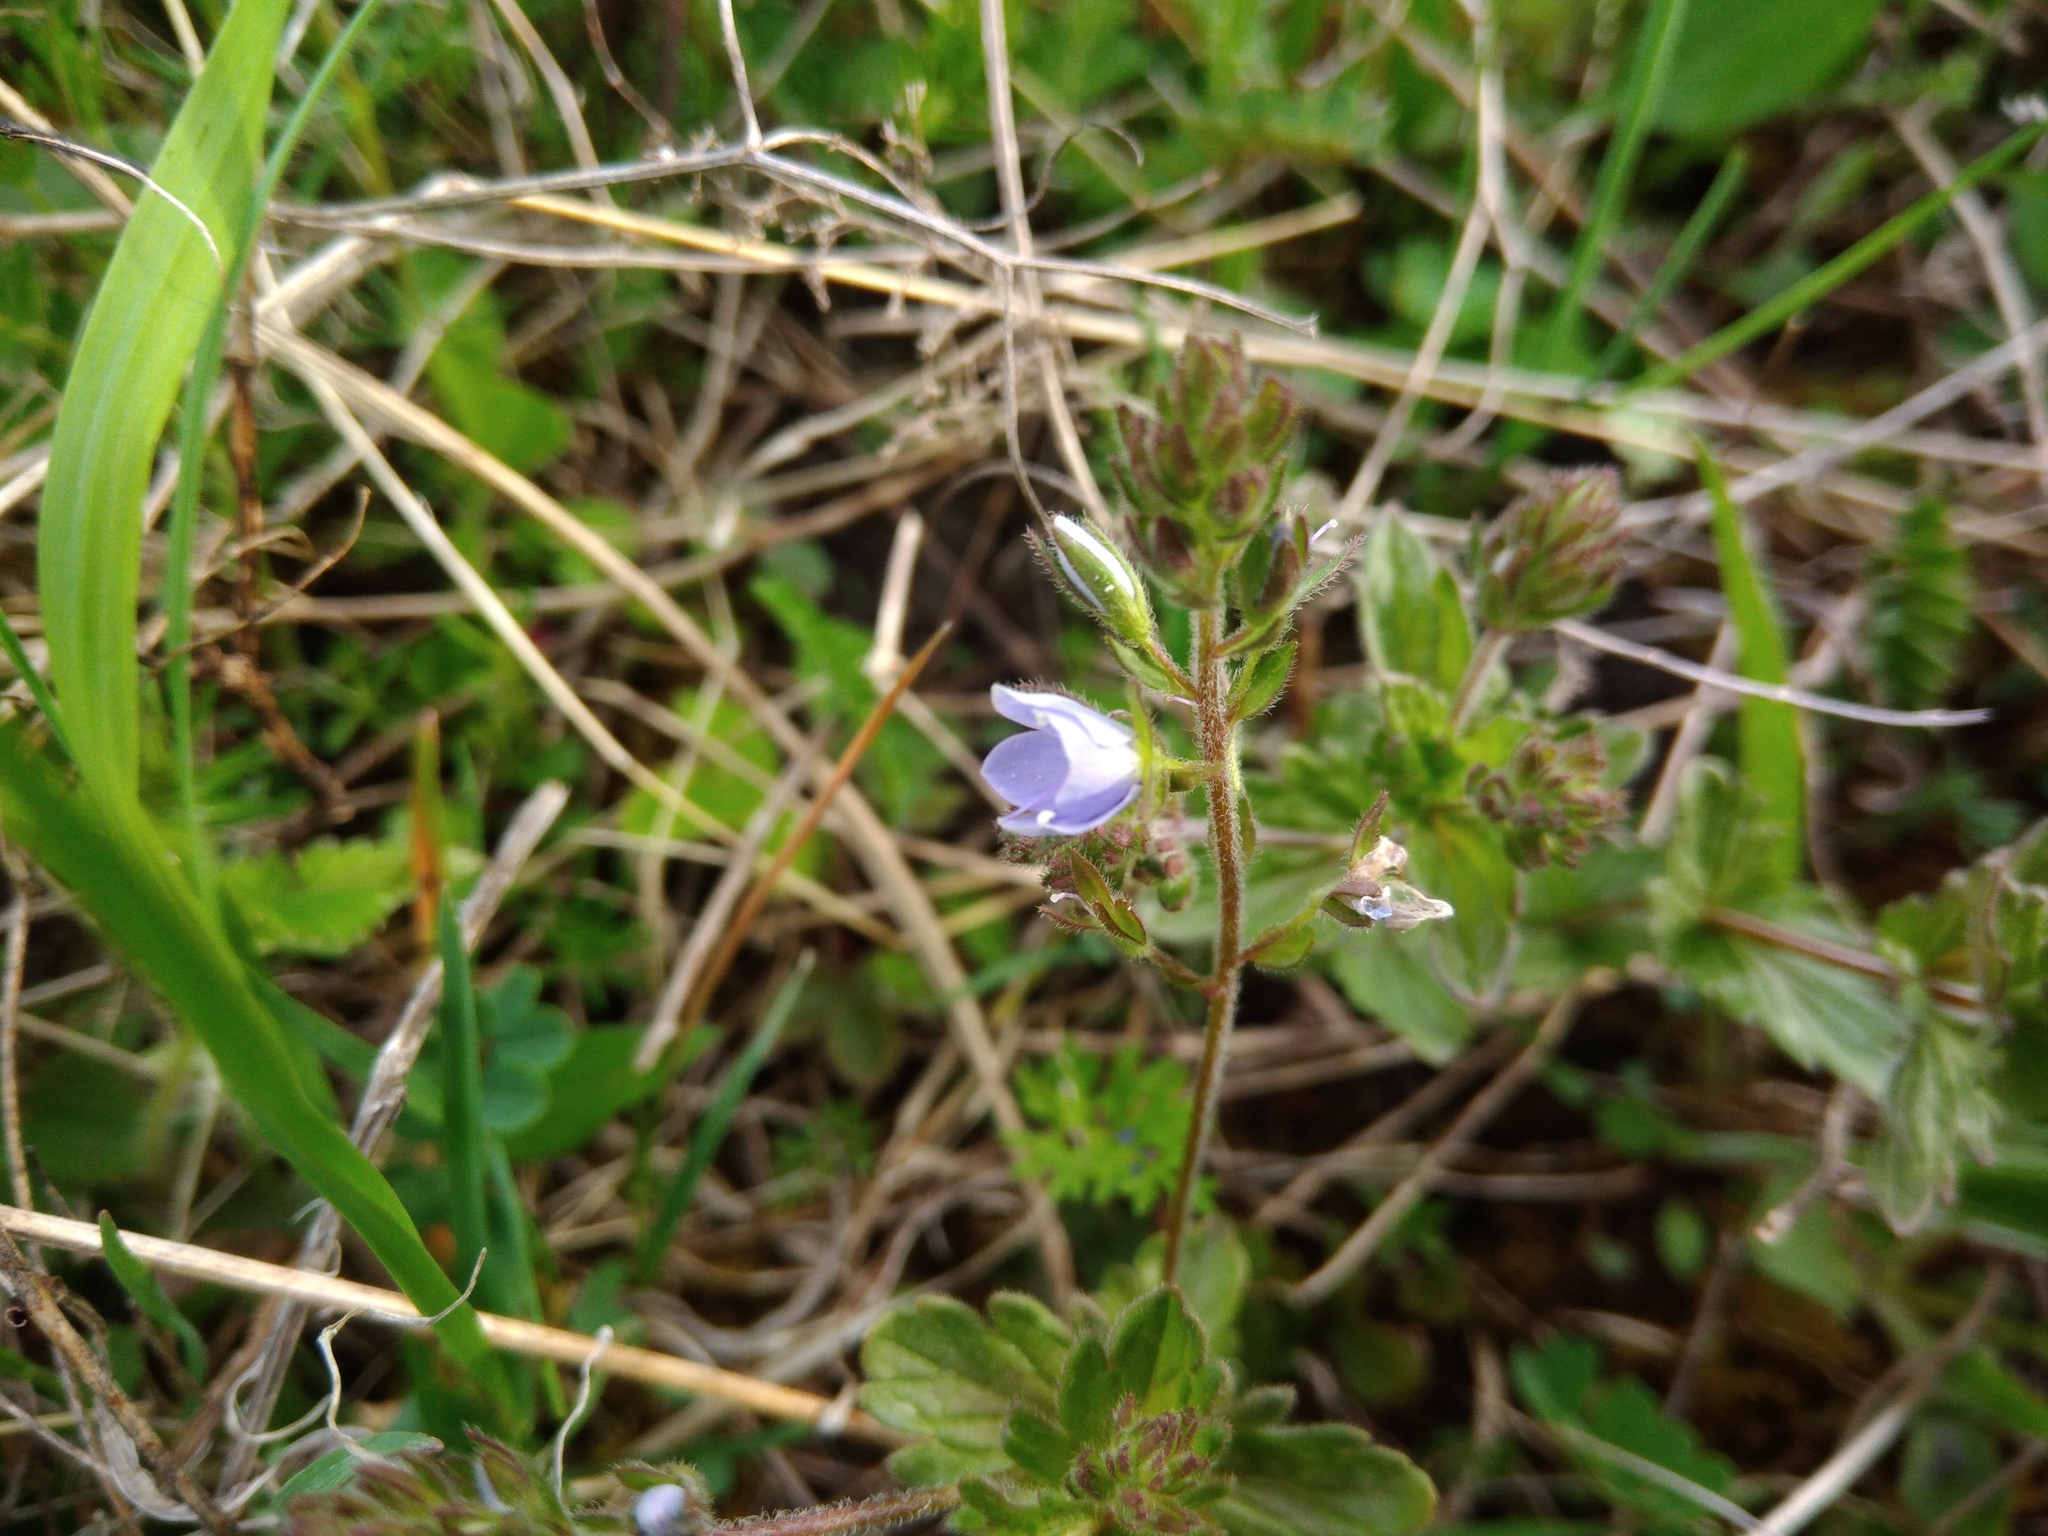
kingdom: Plantae
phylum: Tracheophyta
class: Magnoliopsida
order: Lamiales
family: Plantaginaceae
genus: Veronica
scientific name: Veronica chamaedrys
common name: Germander speedwell
